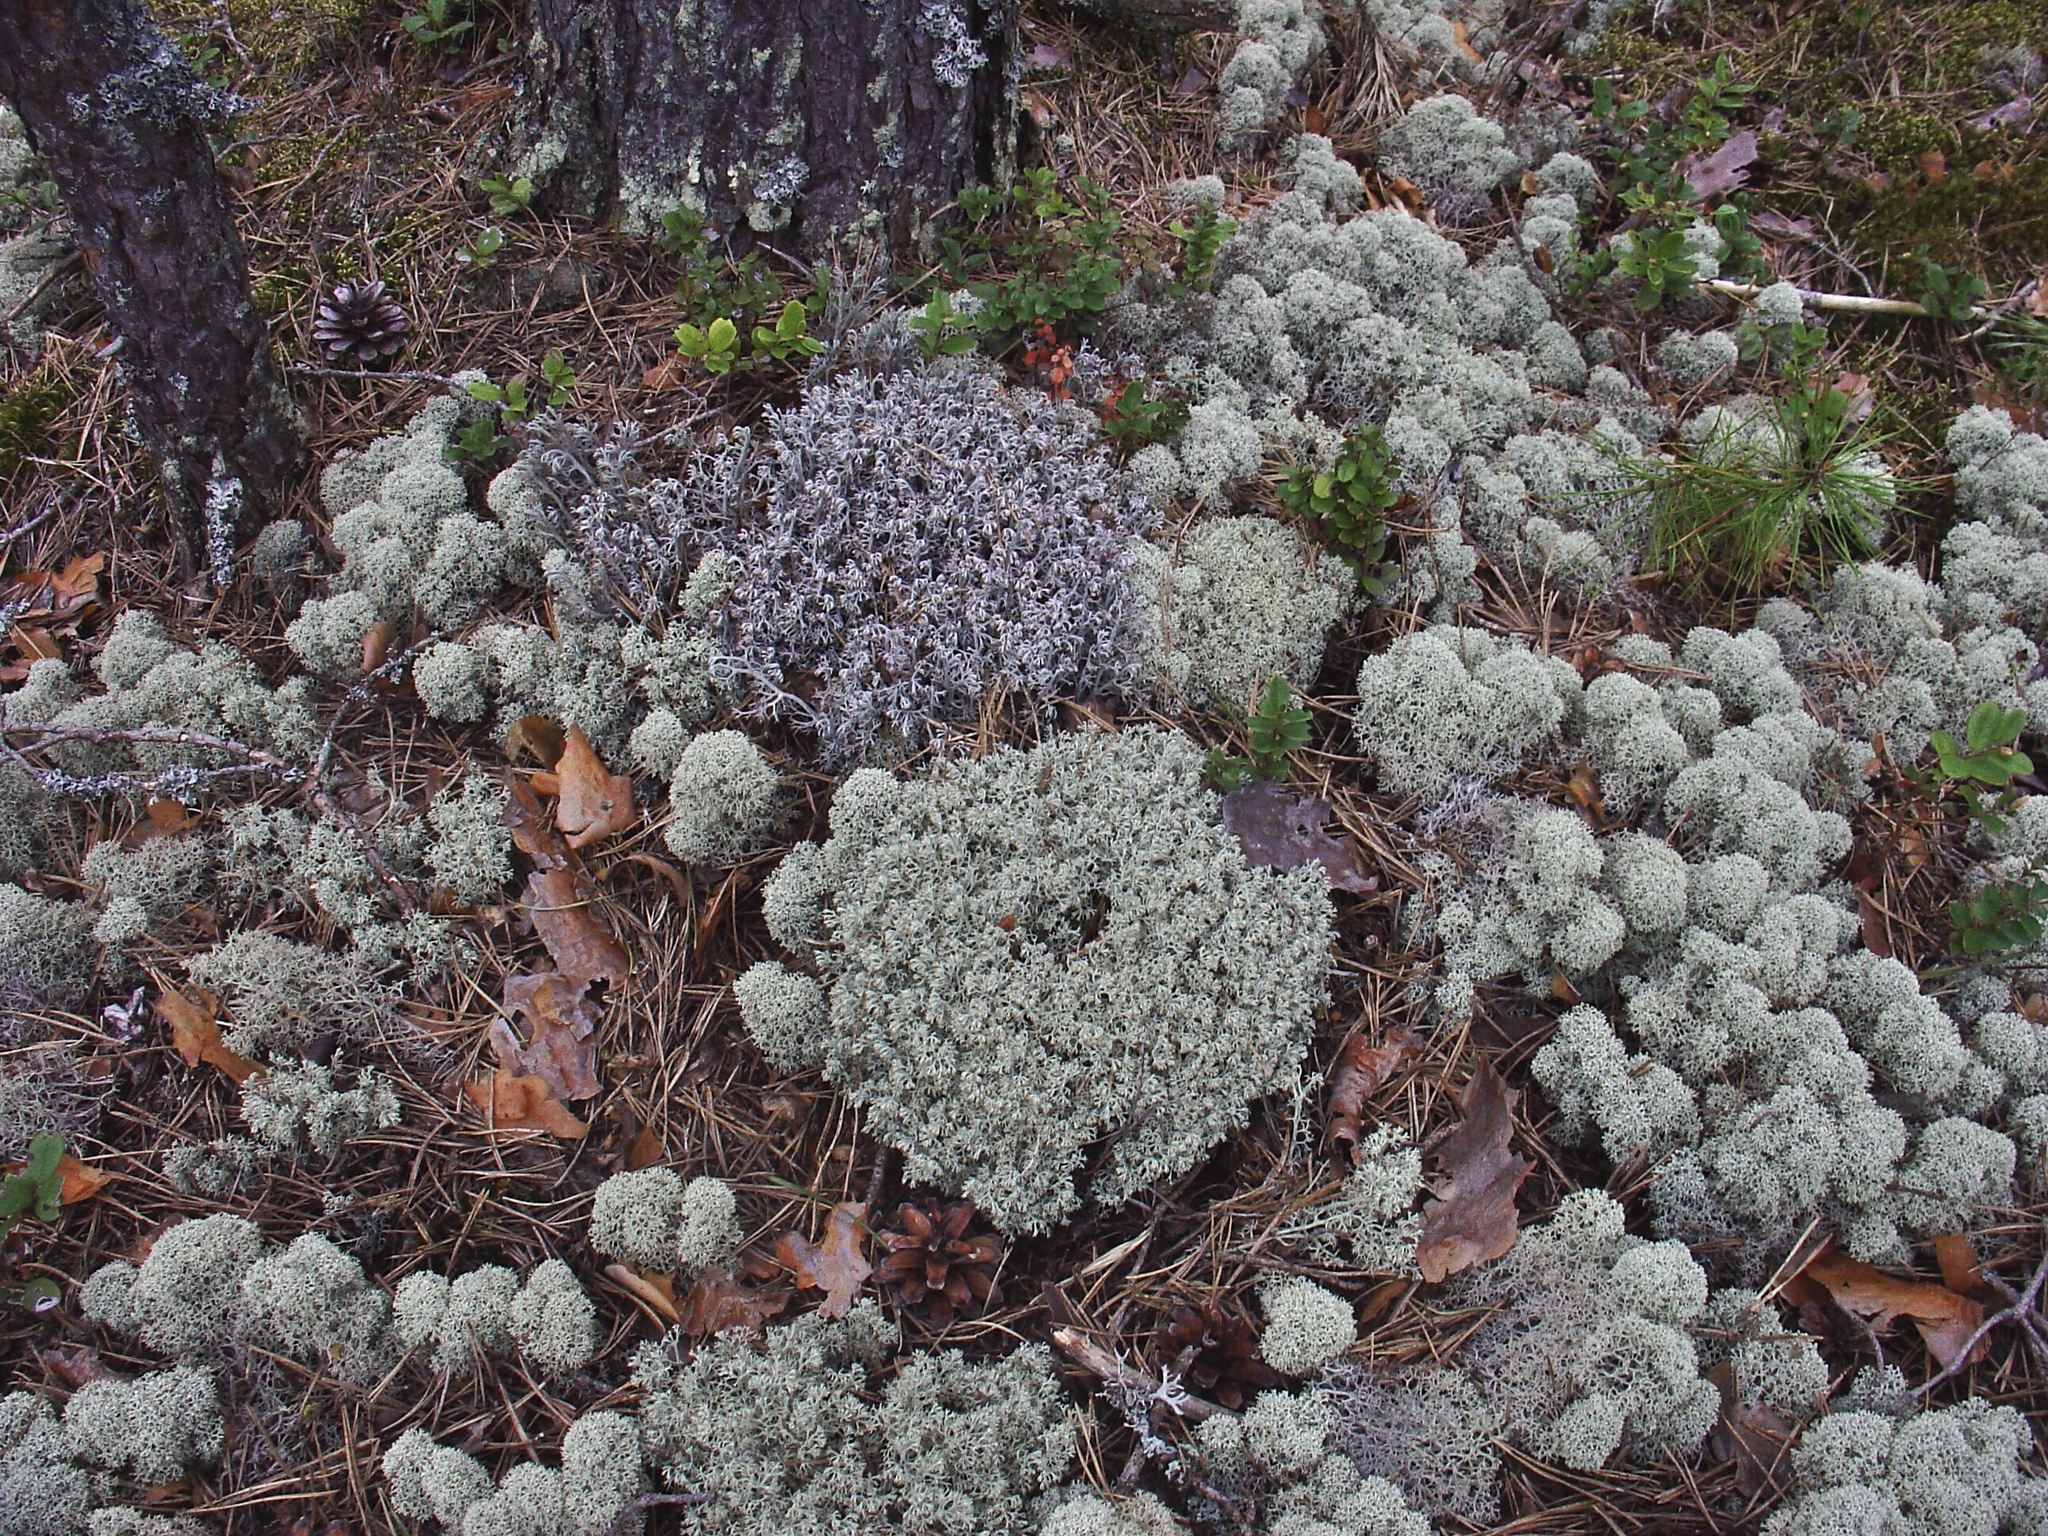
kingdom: Fungi
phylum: Ascomycota
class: Lecanoromycetes
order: Lecanorales
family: Cladoniaceae
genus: Cladonia
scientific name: Cladonia arbuscula
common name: Reindeer lichen
